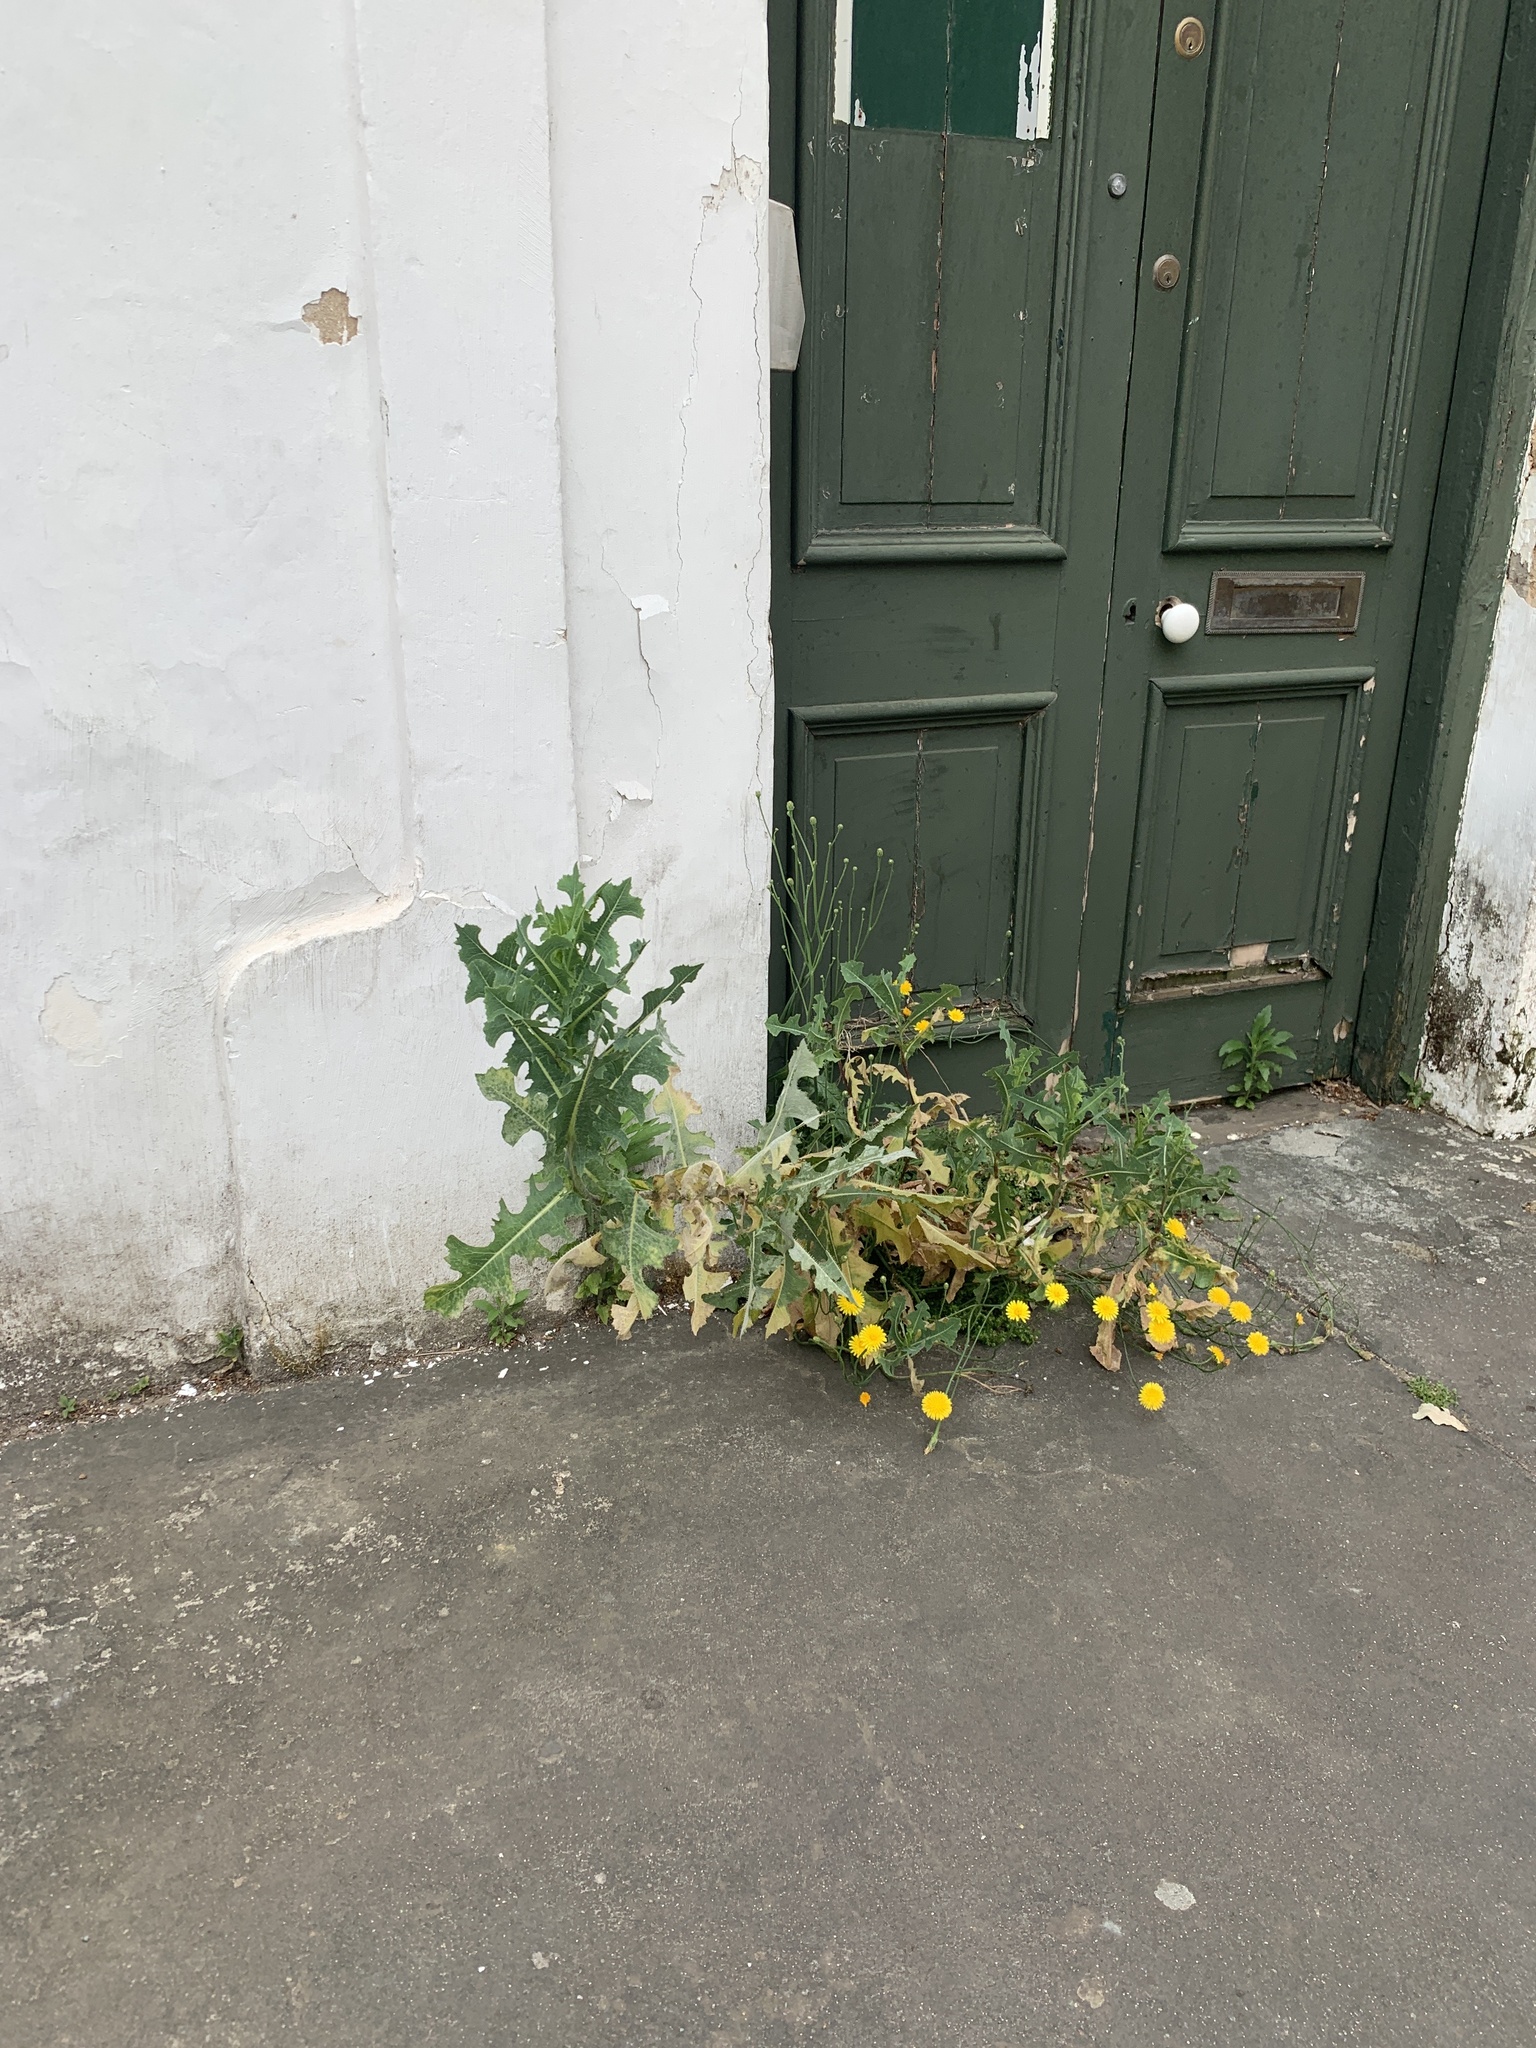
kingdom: Plantae
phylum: Tracheophyta
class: Magnoliopsida
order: Asterales
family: Asteraceae
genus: Hypochaeris
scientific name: Hypochaeris radicata
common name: Flatweed
